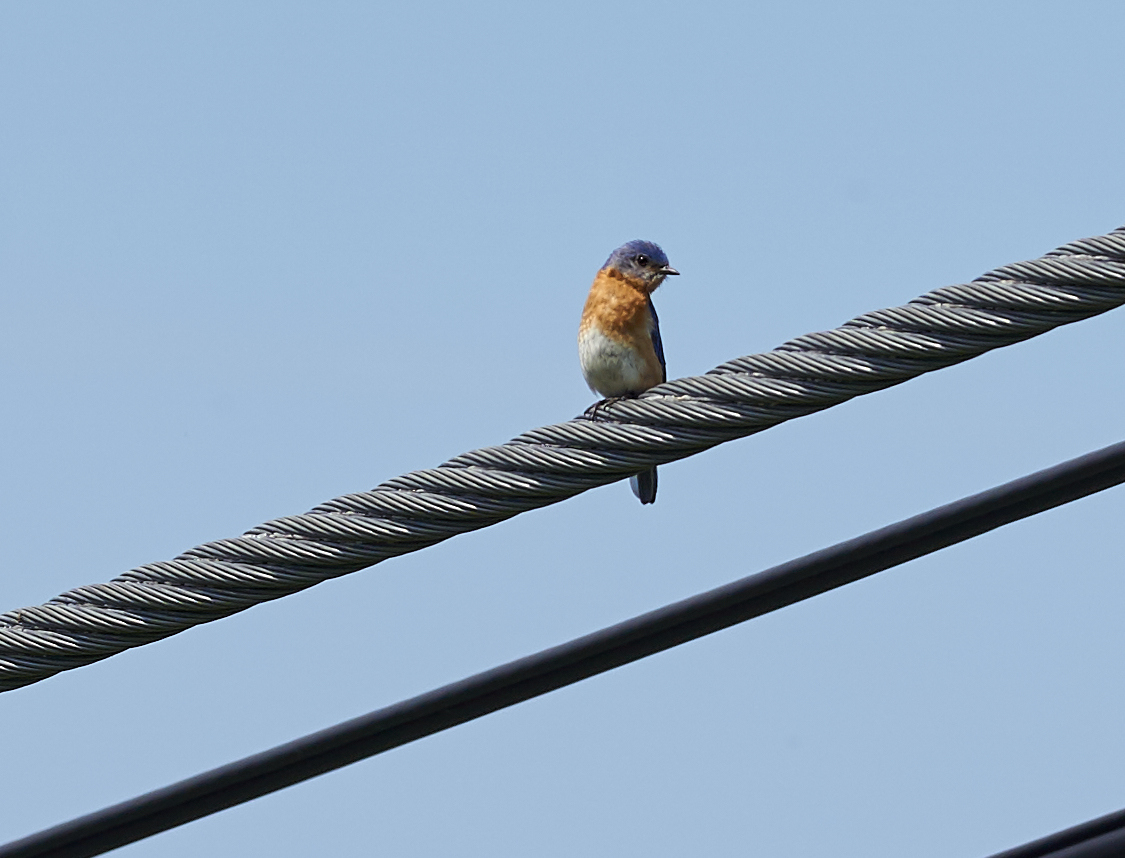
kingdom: Animalia
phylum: Chordata
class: Aves
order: Passeriformes
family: Turdidae
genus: Sialia
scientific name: Sialia sialis
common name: Eastern bluebird
